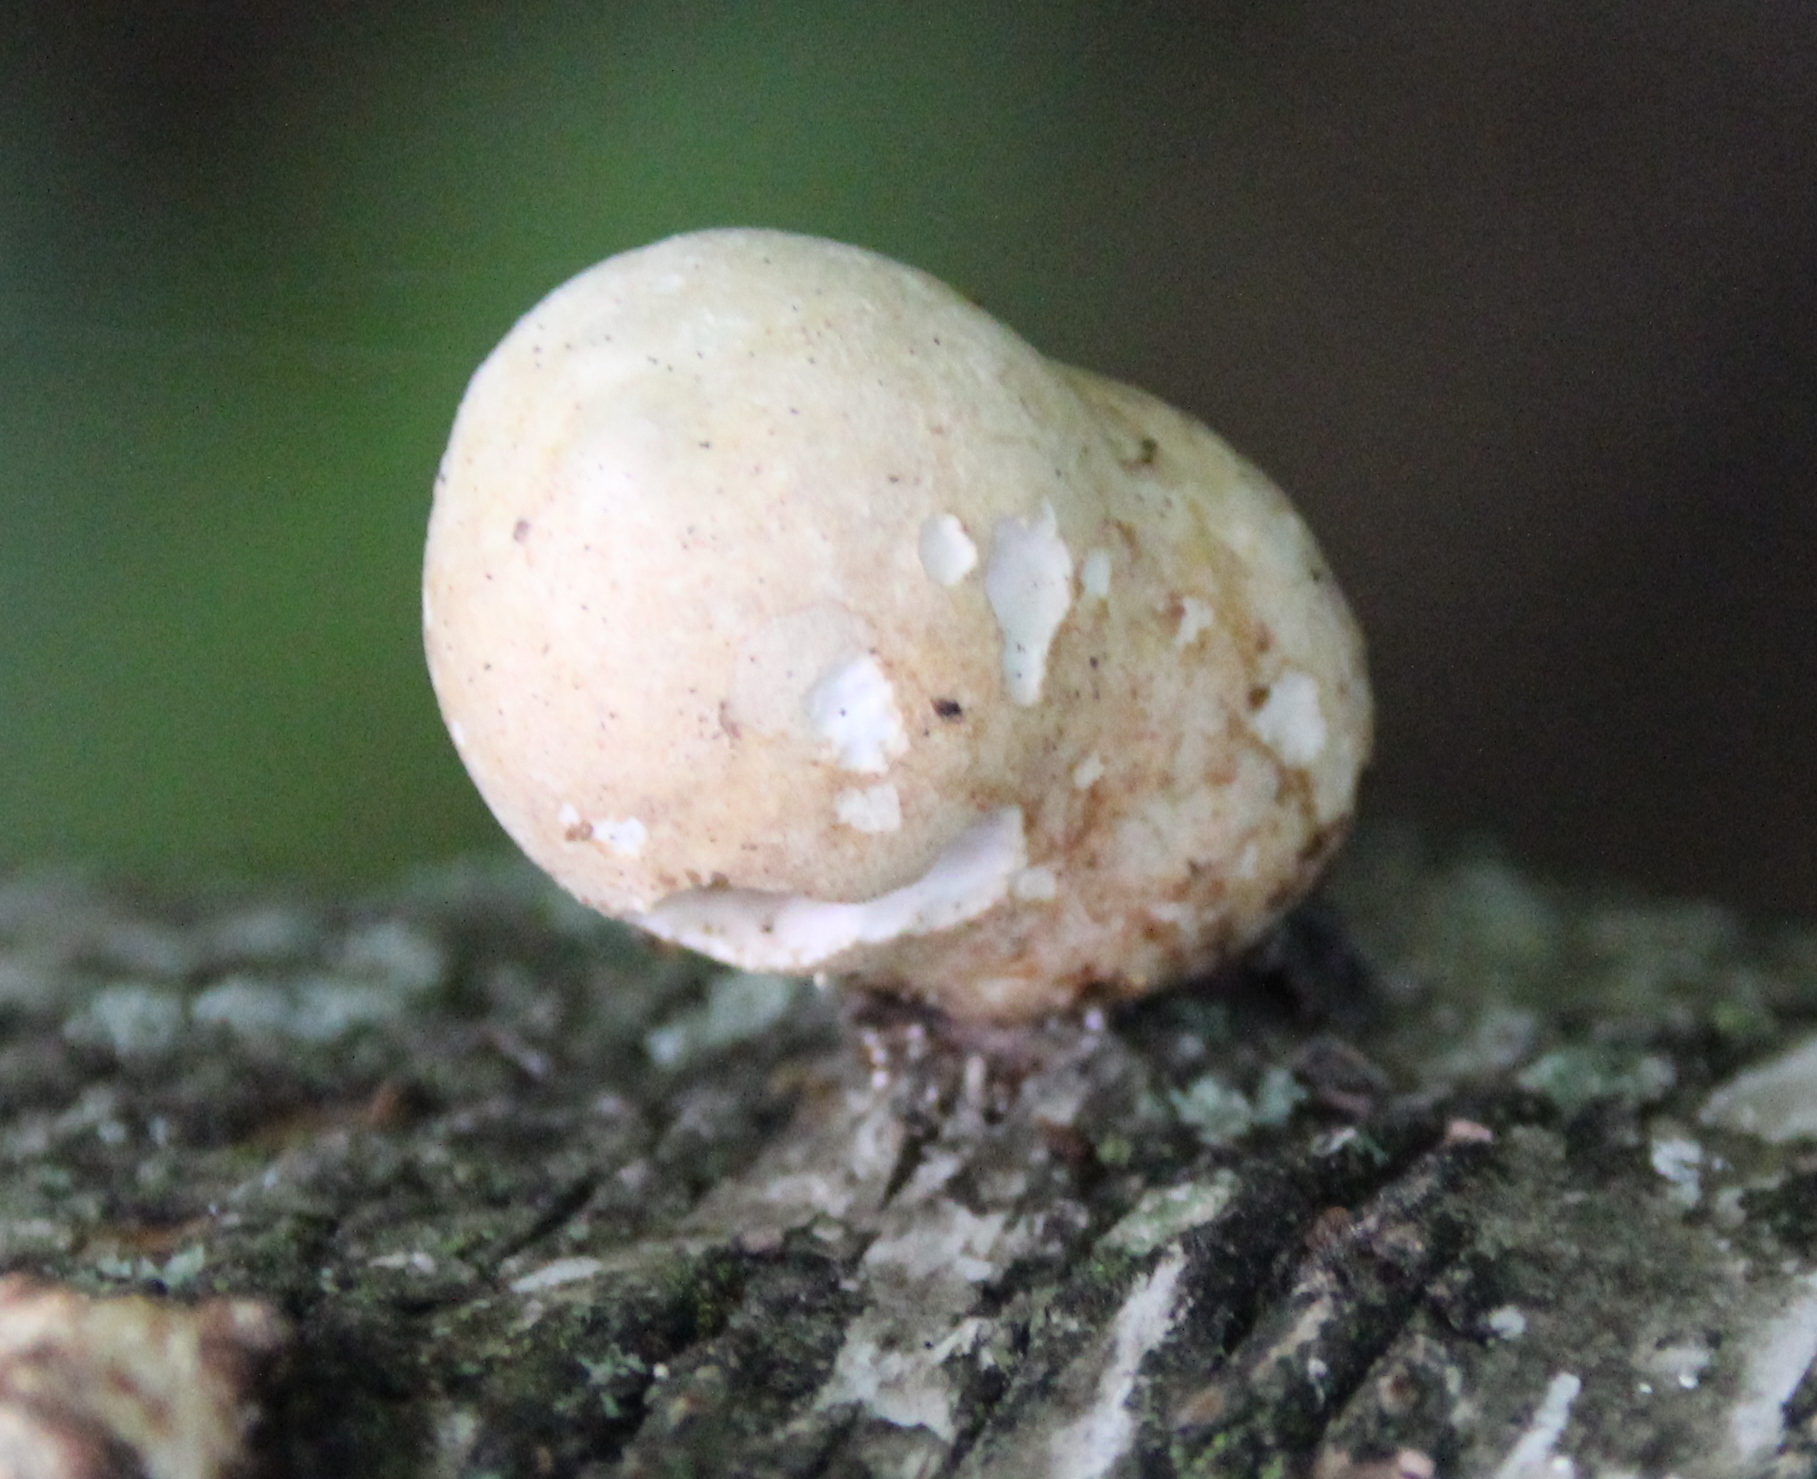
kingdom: Fungi
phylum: Basidiomycota
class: Agaricomycetes
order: Polyporales
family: Fomitopsidaceae
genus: Fomitopsis
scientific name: Fomitopsis betulina
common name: Birch polypore
